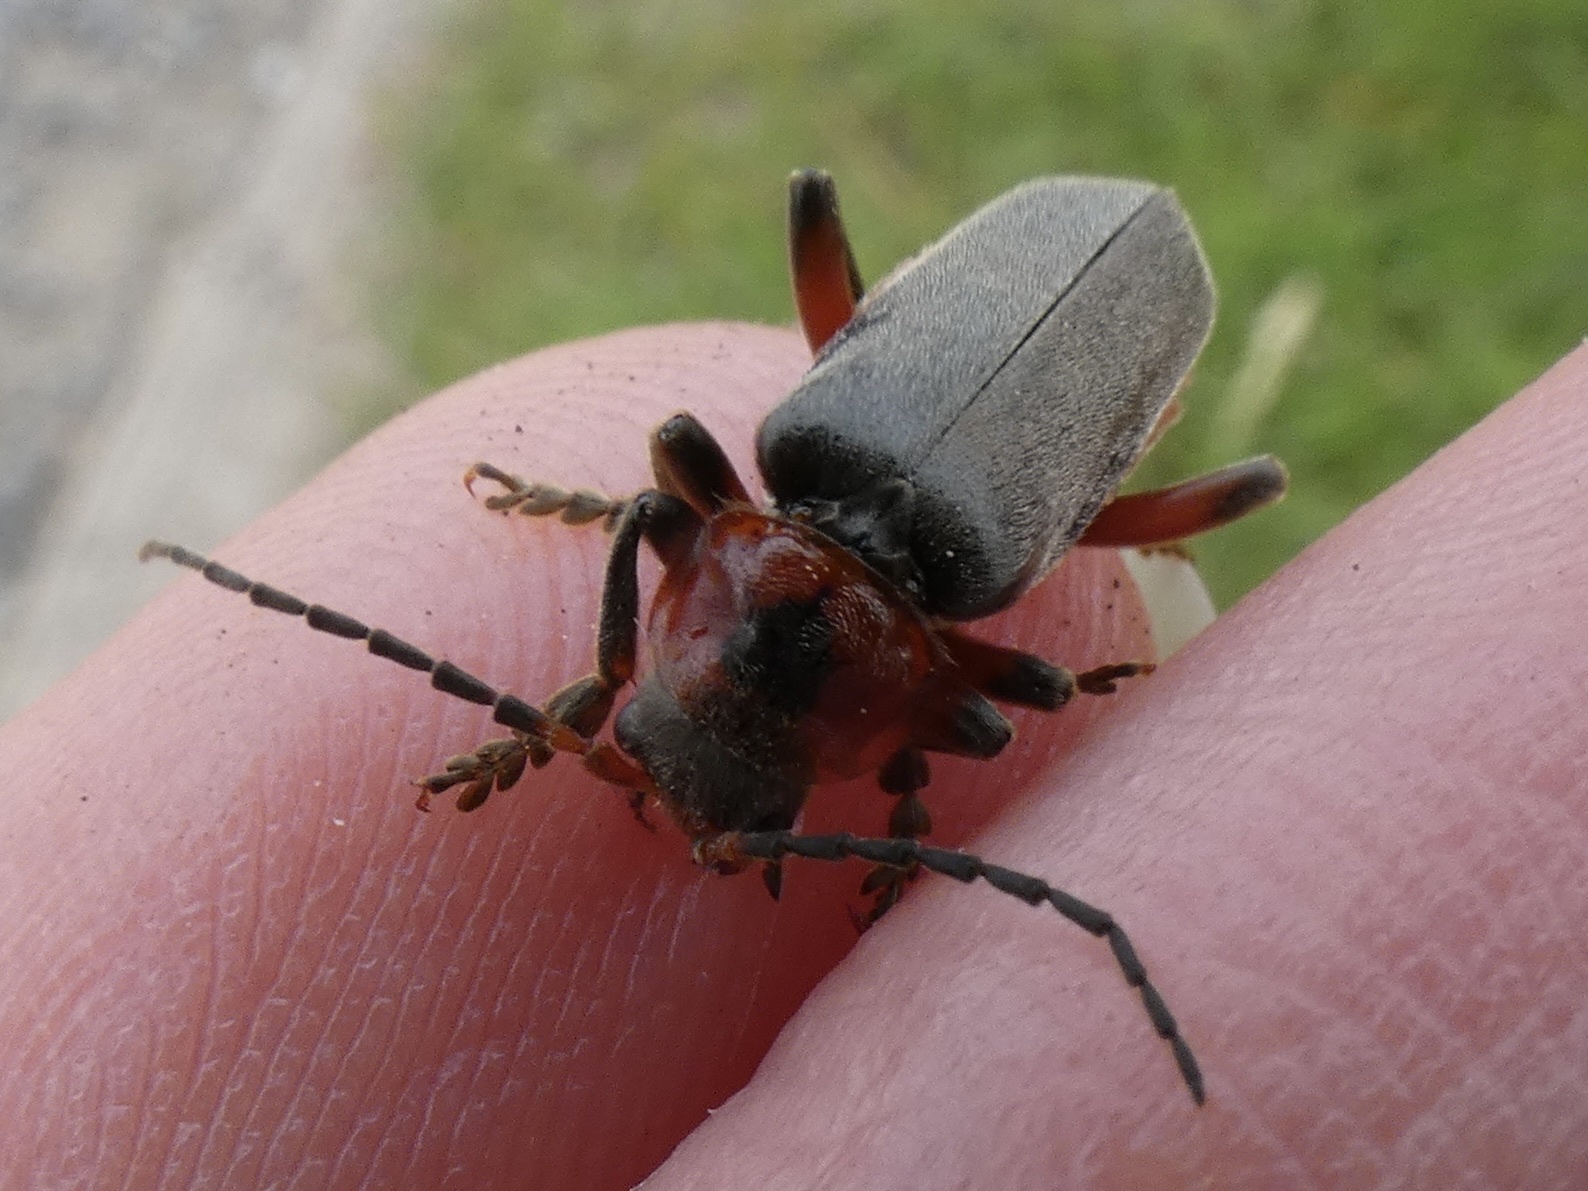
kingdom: Animalia
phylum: Arthropoda
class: Insecta
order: Coleoptera
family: Cantharidae
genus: Cantharis
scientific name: Cantharis rustica
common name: Soldier beetle
